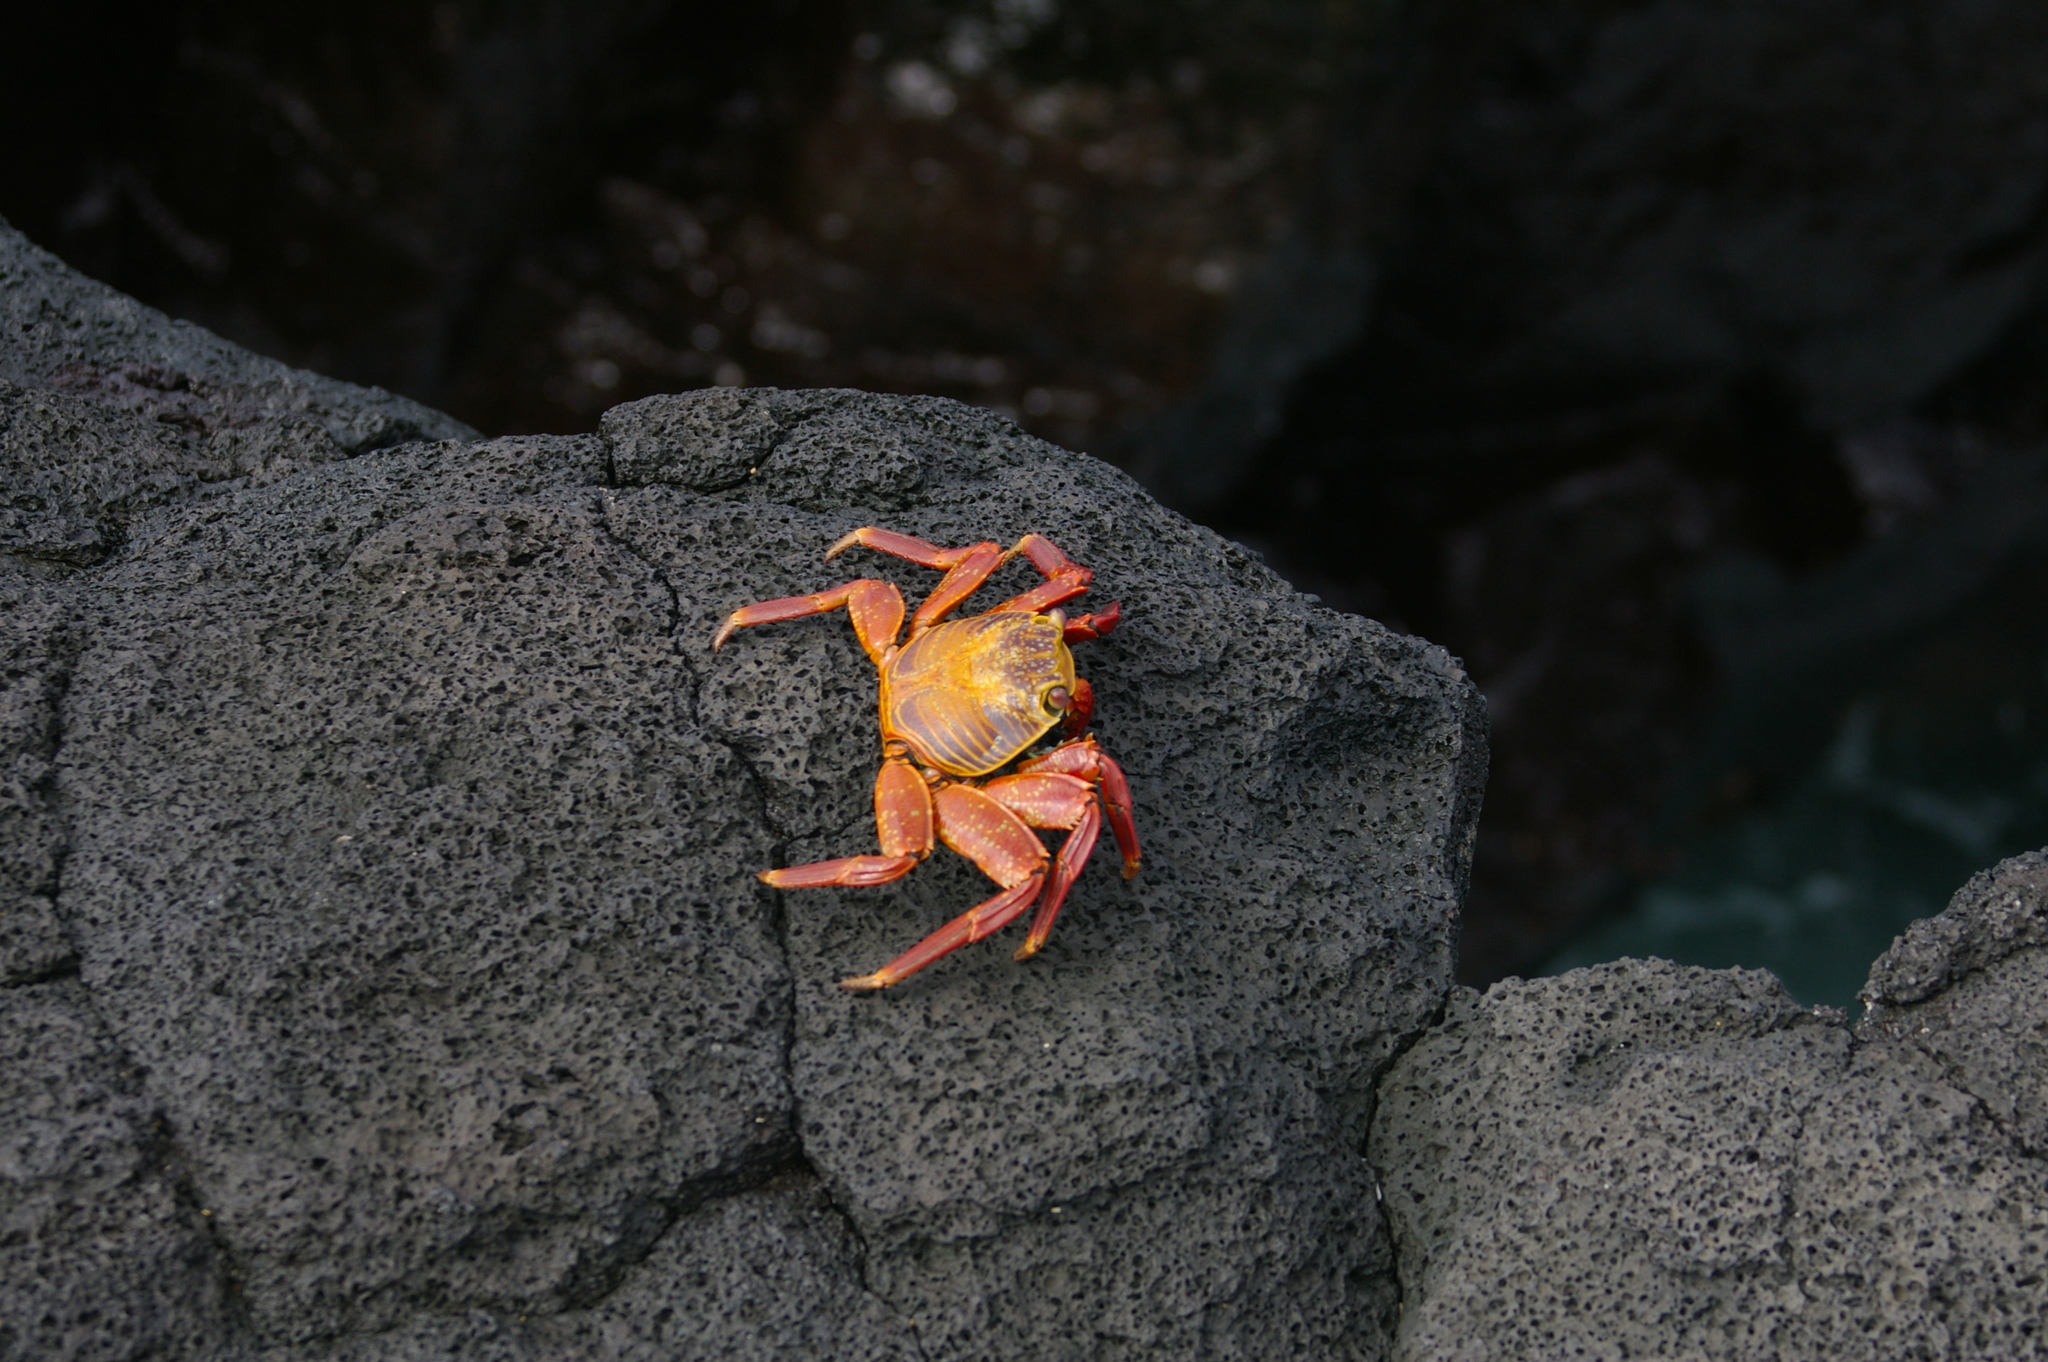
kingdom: Animalia
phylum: Arthropoda
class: Malacostraca
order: Decapoda
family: Grapsidae
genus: Grapsus
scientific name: Grapsus grapsus
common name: Sally lightfoot
